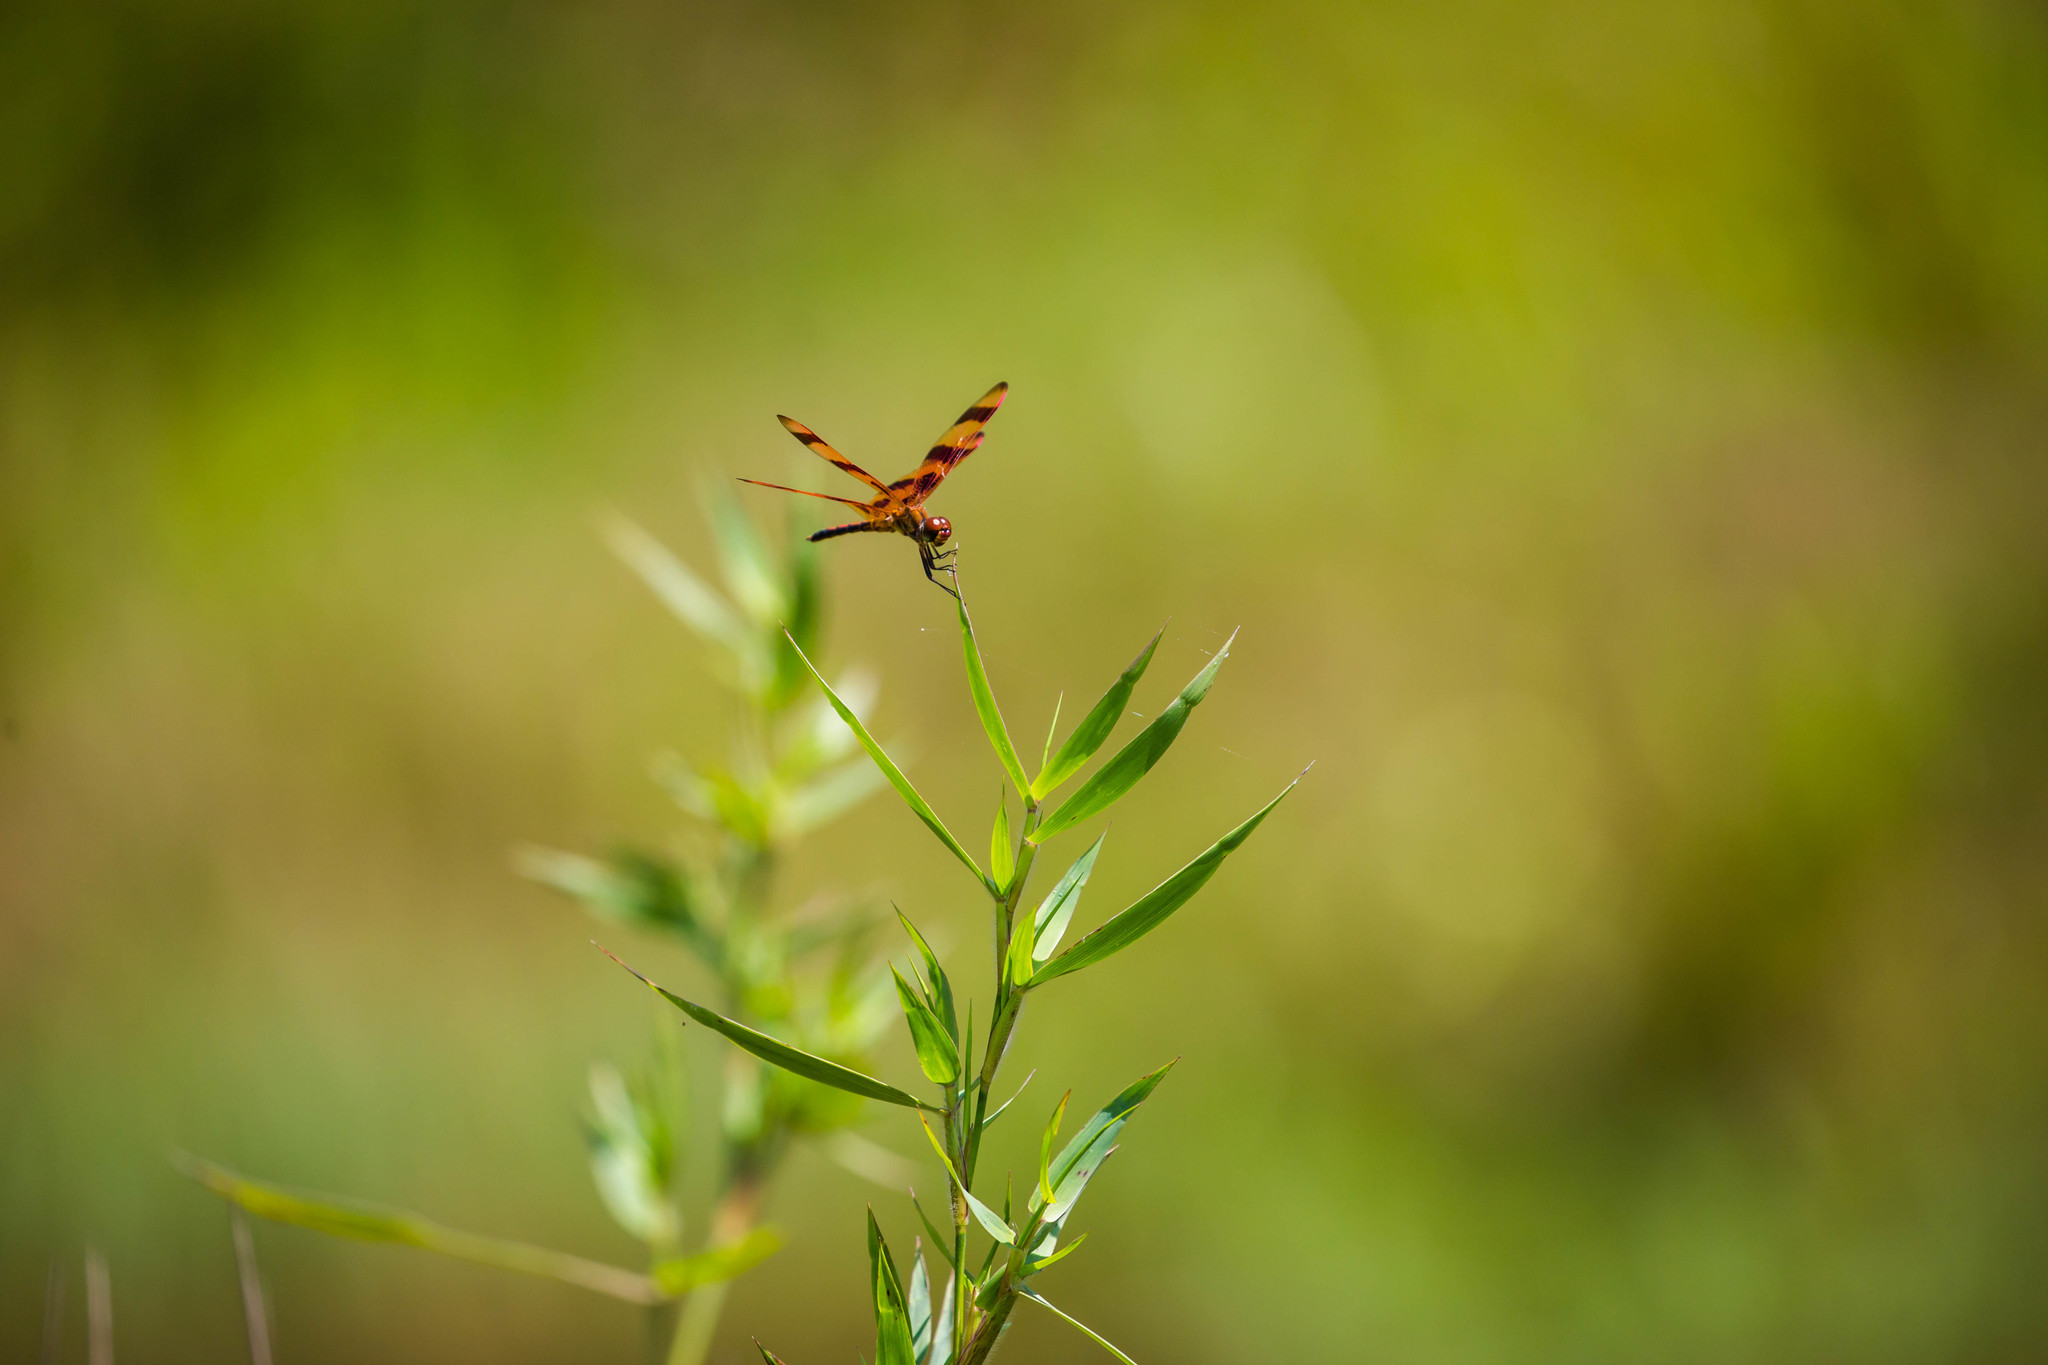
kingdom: Animalia
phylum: Arthropoda
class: Insecta
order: Odonata
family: Libellulidae
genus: Celithemis
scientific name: Celithemis eponina
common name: Halloween pennant
